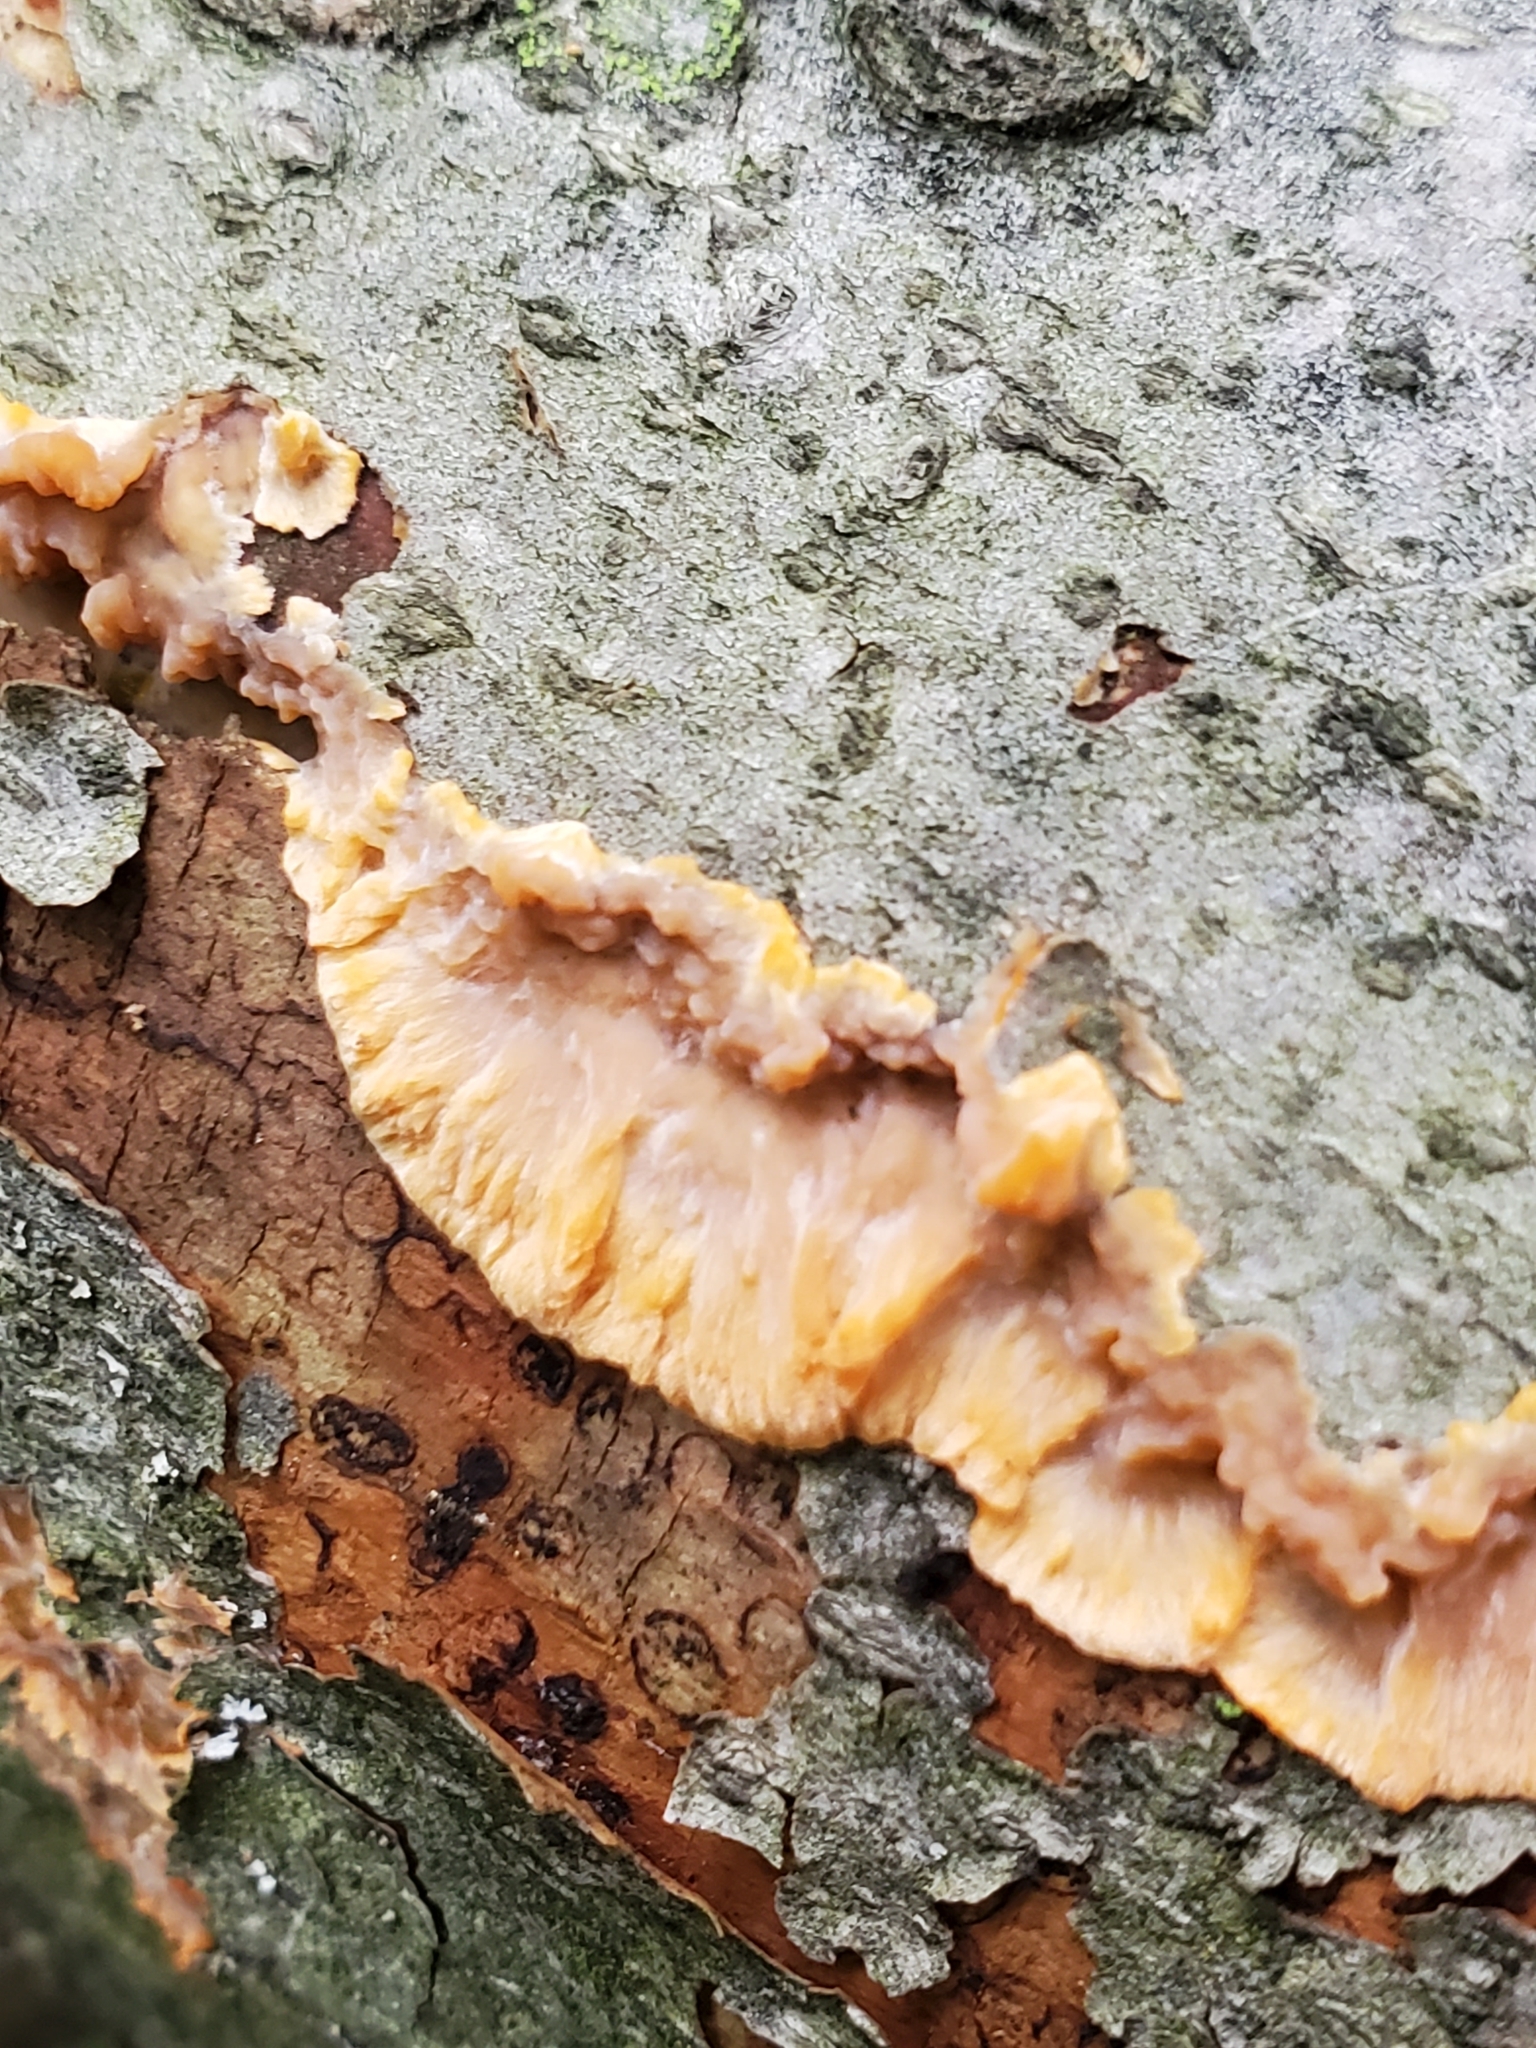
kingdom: Fungi
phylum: Basidiomycota
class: Agaricomycetes
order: Polyporales
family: Meruliaceae
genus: Phlebia
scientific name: Phlebia radiata
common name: Wrinkled crust
